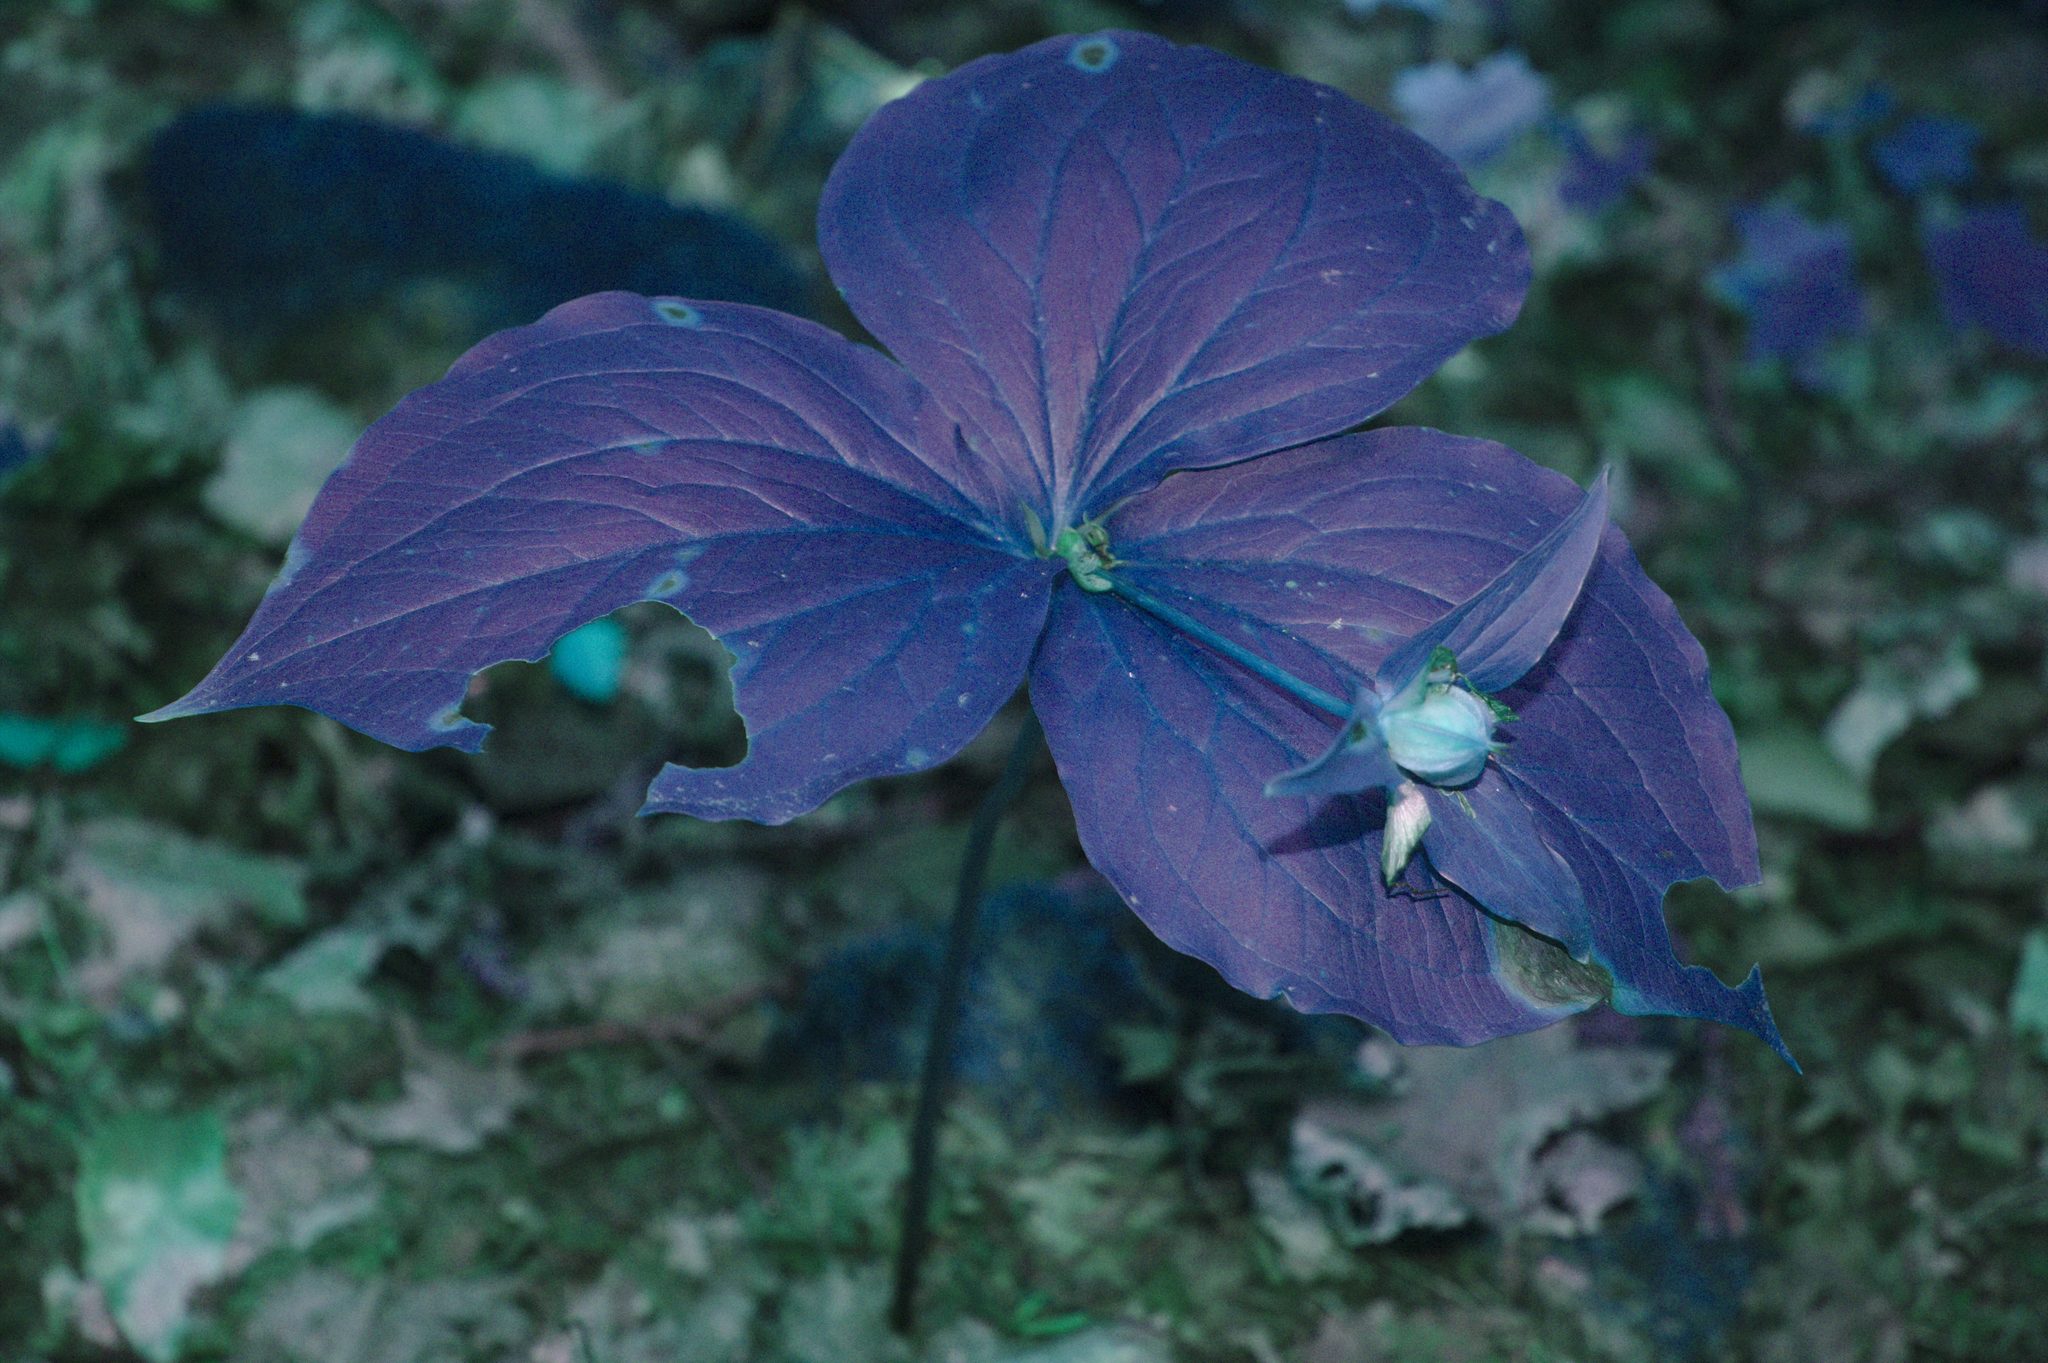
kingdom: Plantae
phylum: Tracheophyta
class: Liliopsida
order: Liliales
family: Melanthiaceae
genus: Trillium
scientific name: Trillium grandiflorum
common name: Great white trillium
